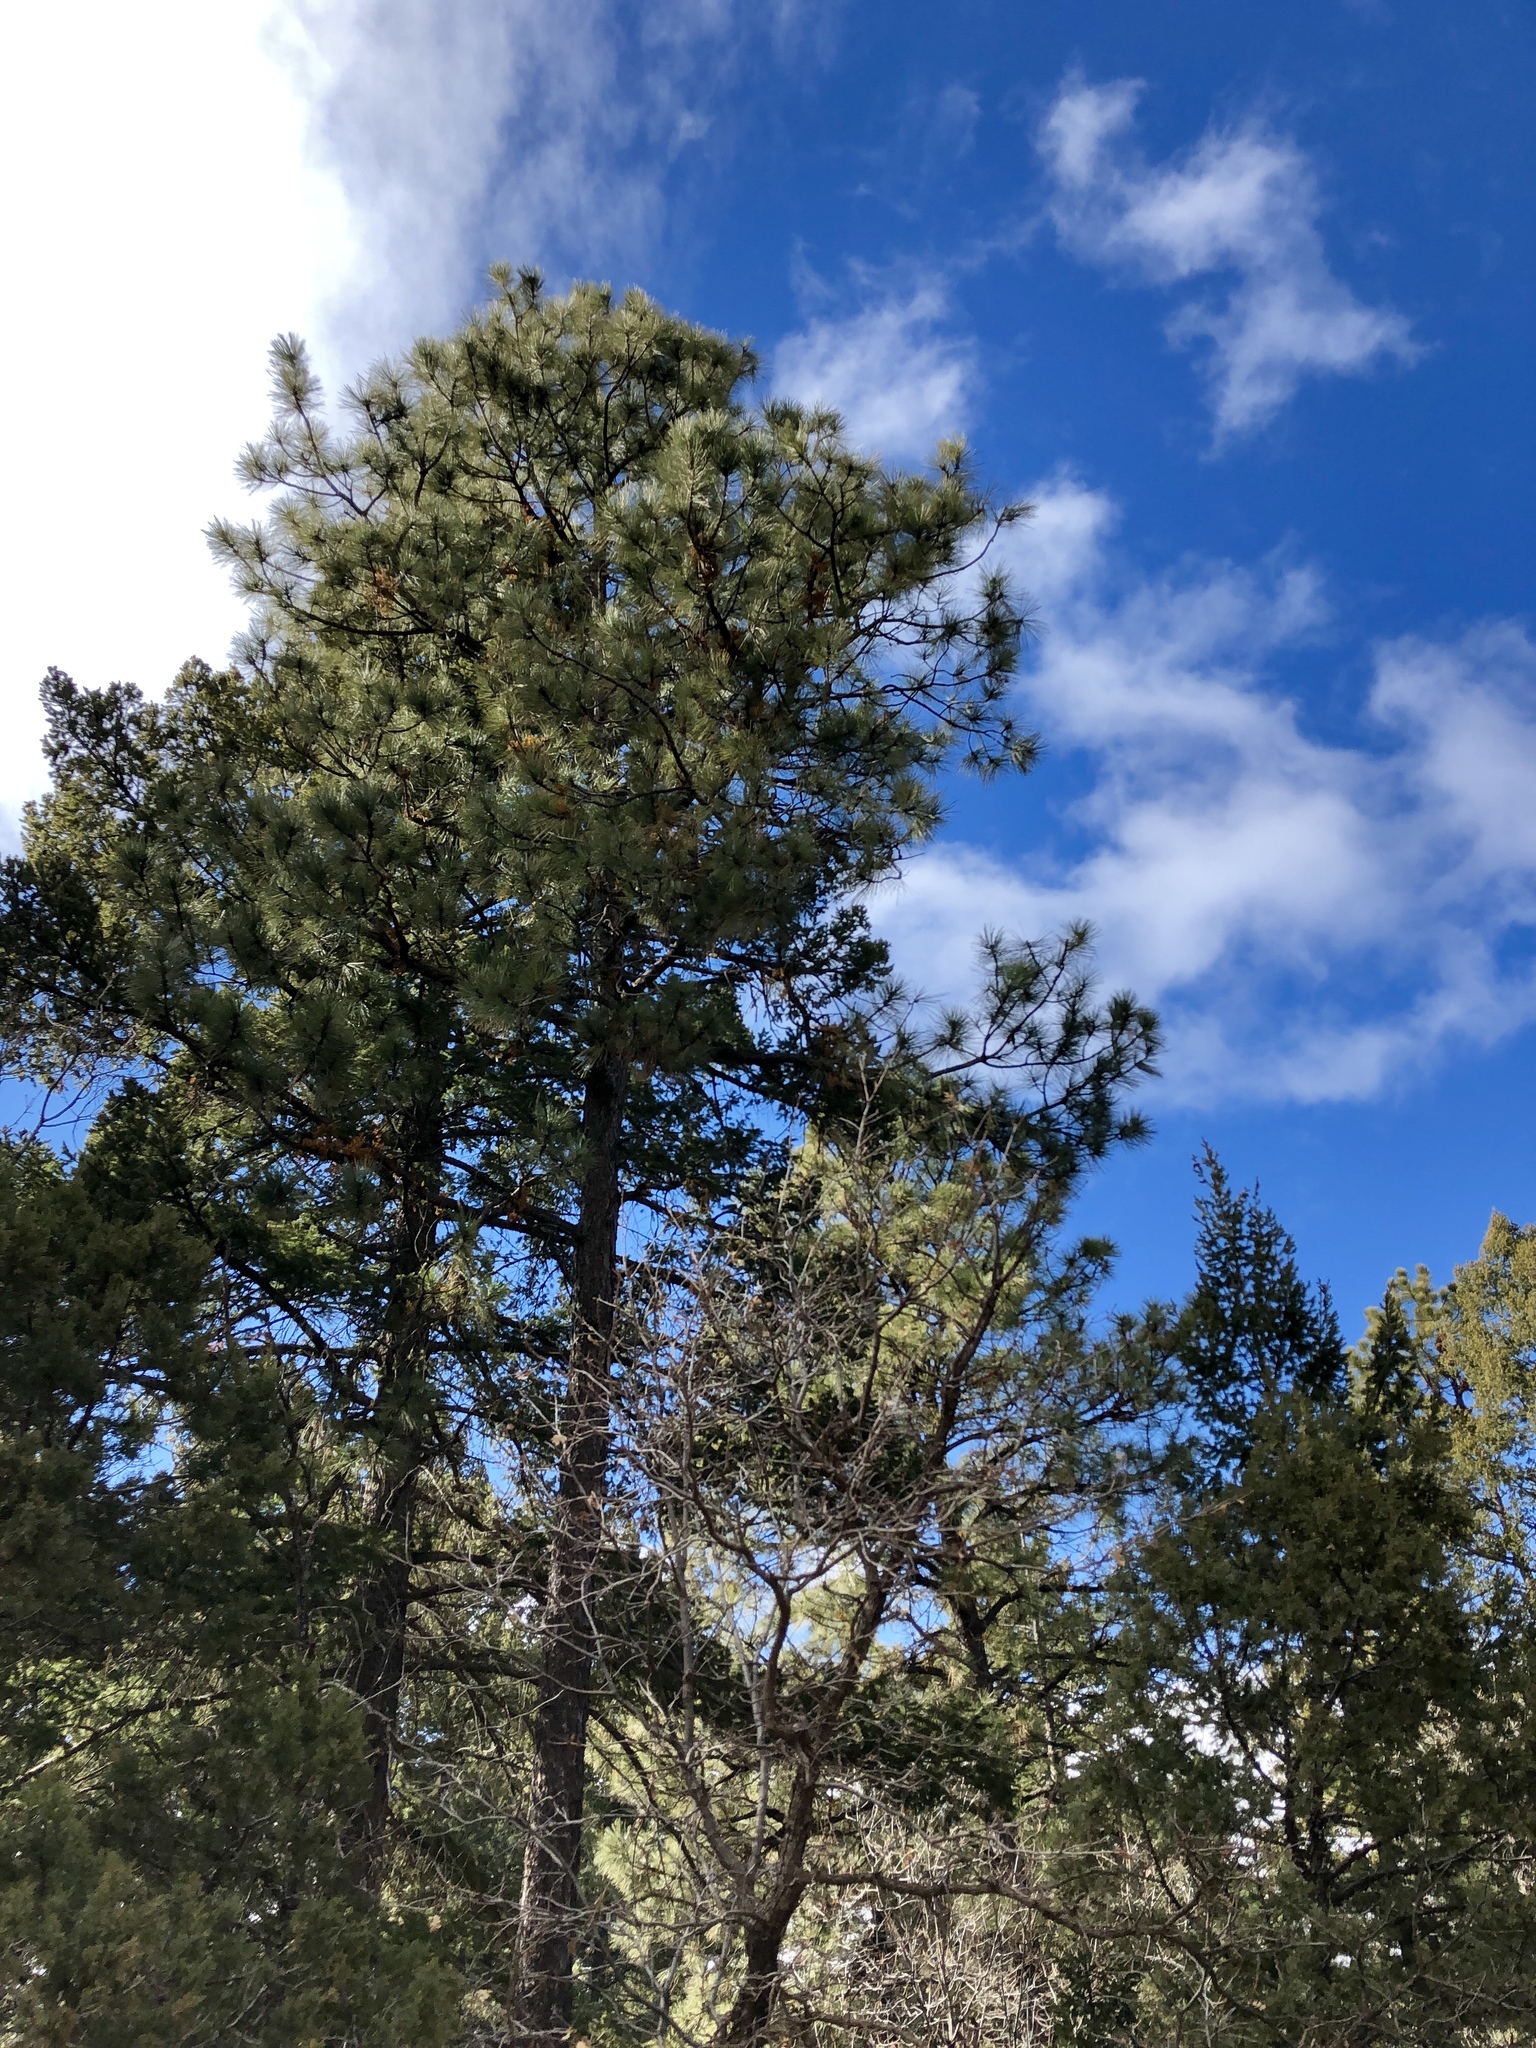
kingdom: Plantae
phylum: Tracheophyta
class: Pinopsida
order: Pinales
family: Pinaceae
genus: Pinus
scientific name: Pinus ponderosa
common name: Western yellow-pine
